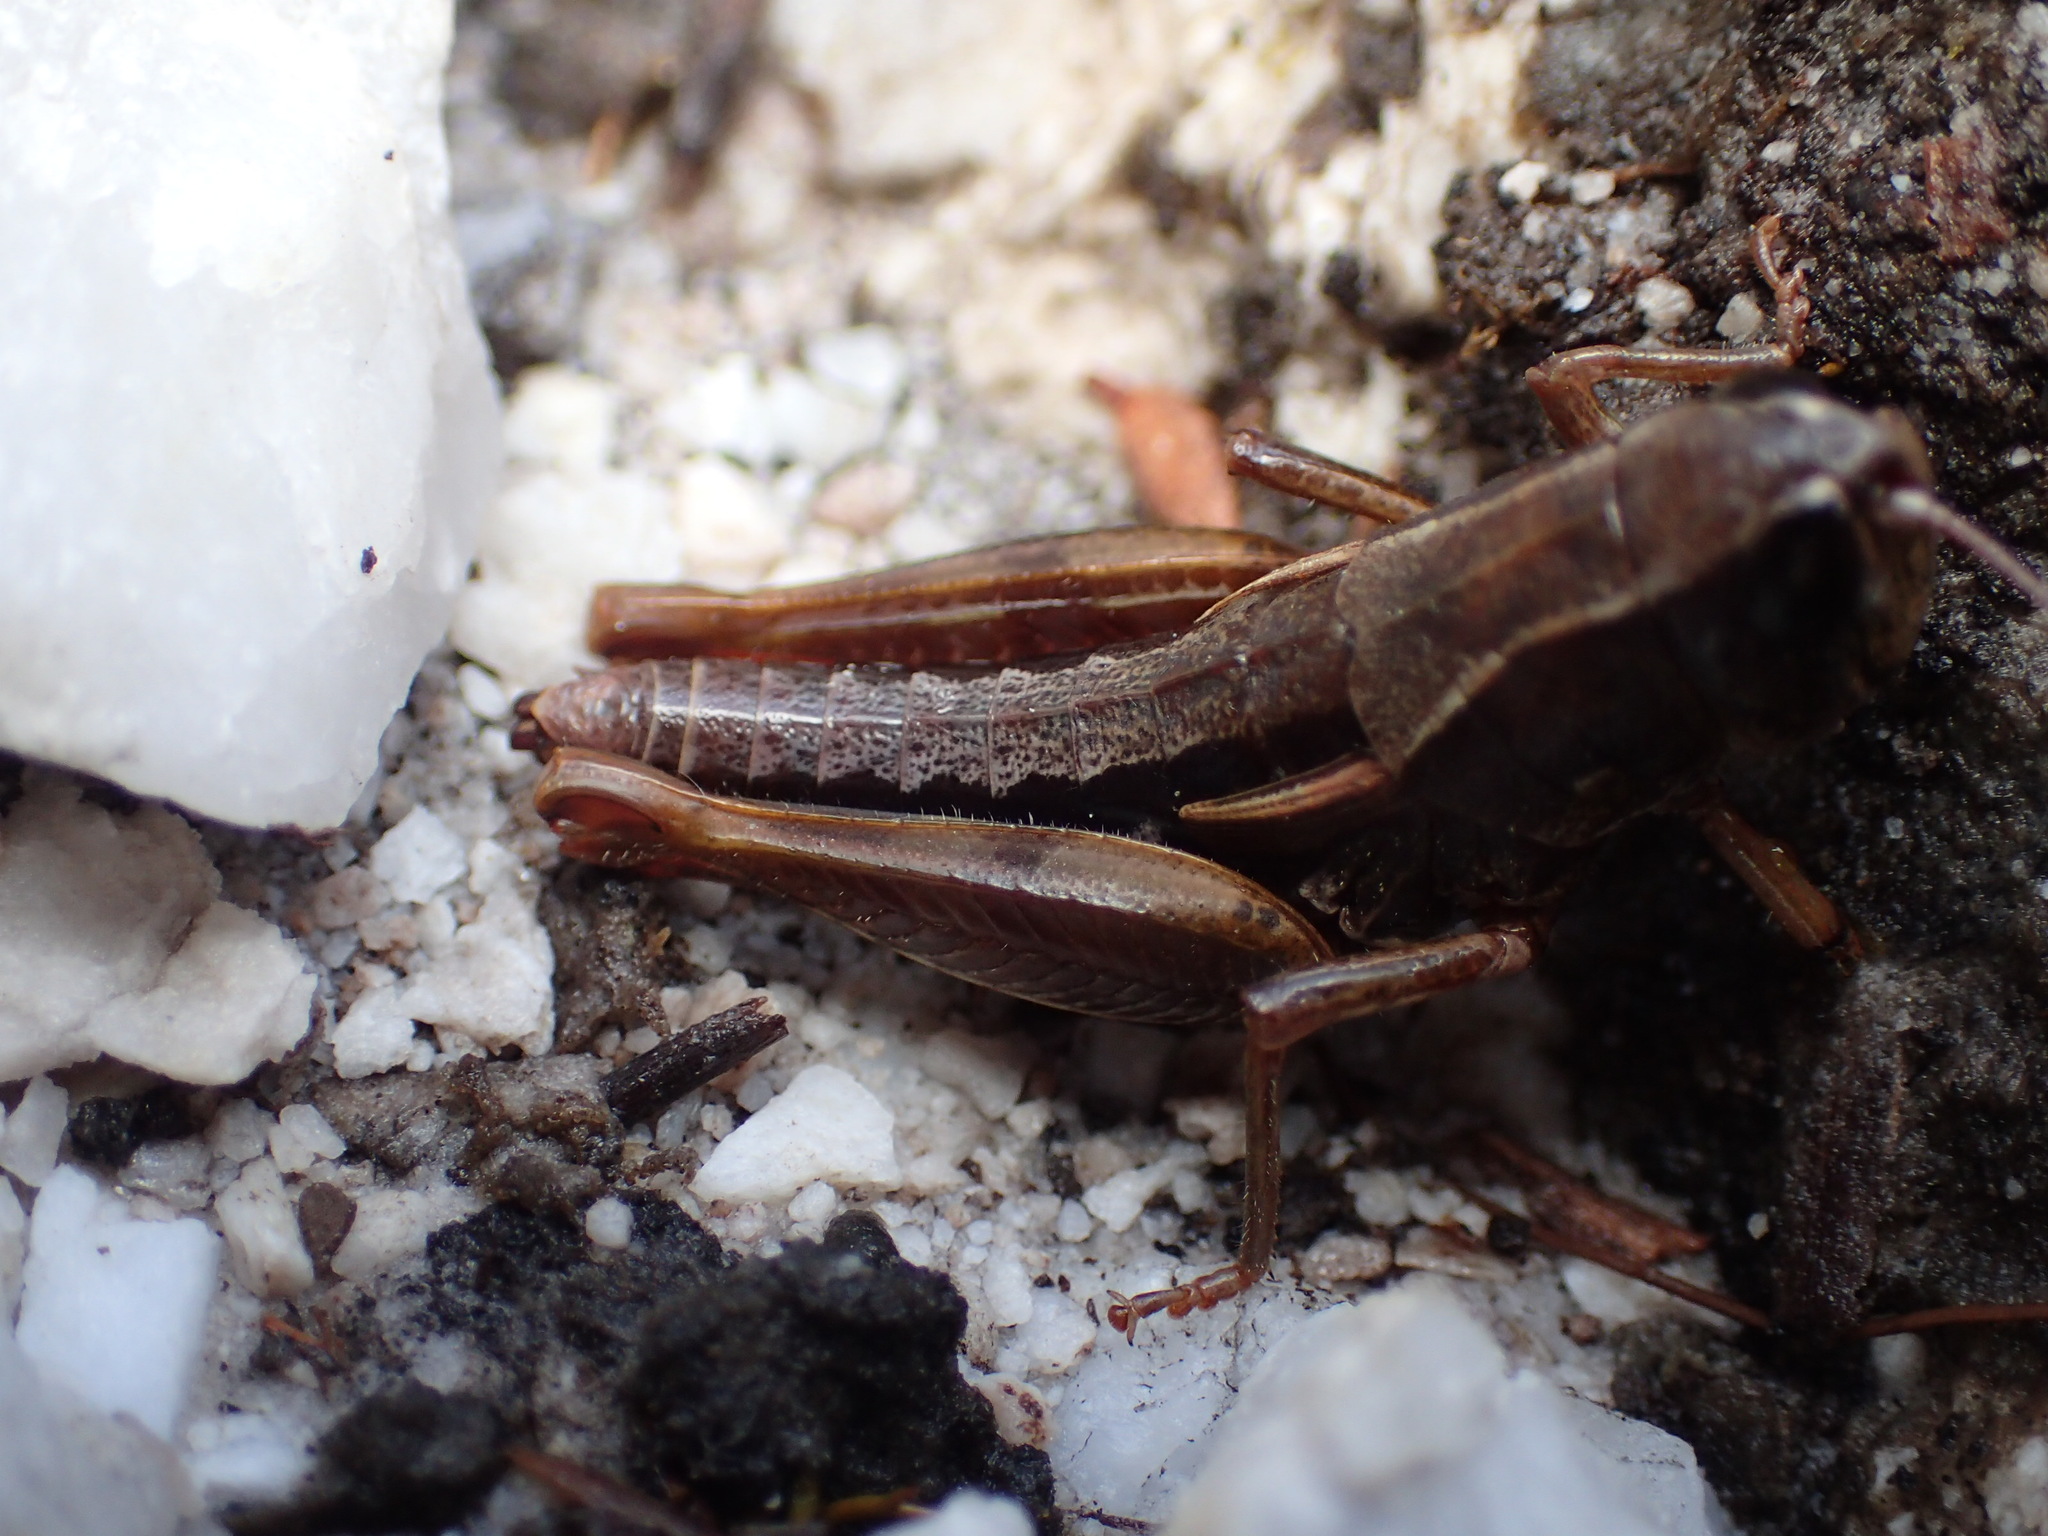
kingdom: Animalia
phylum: Arthropoda
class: Insecta
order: Orthoptera
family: Acrididae
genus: Russalpia
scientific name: Russalpia longifurca
